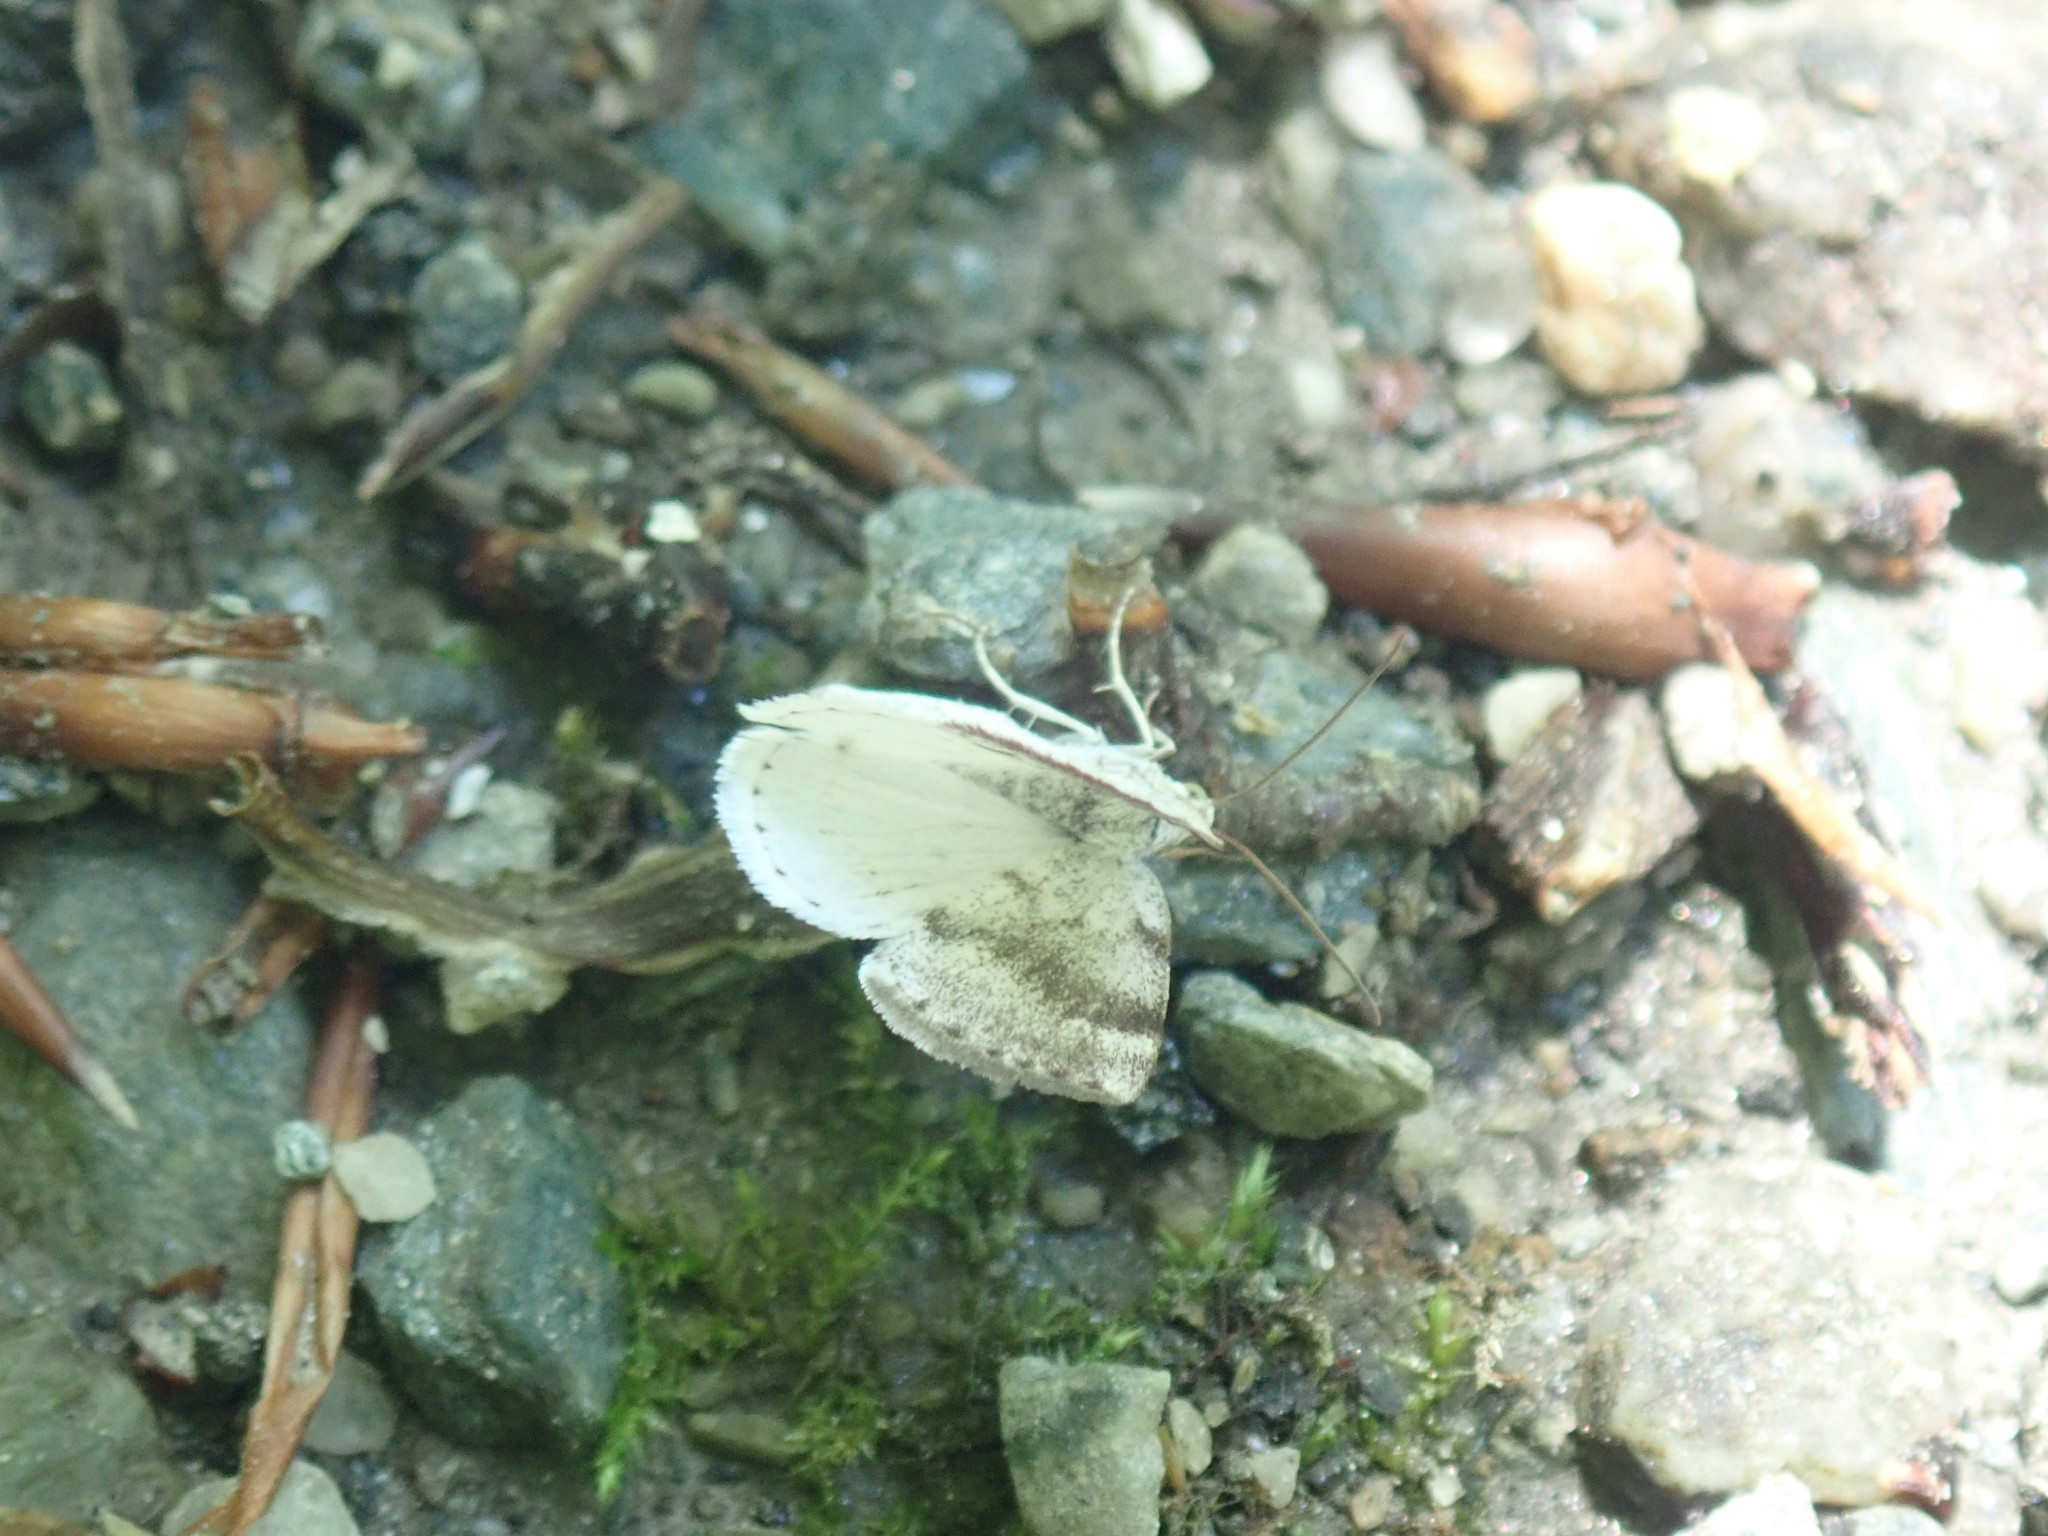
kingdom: Animalia
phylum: Arthropoda
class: Insecta
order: Lepidoptera
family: Geometridae
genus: Lomographa
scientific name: Lomographa semiclarata
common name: Bluish spring moth
